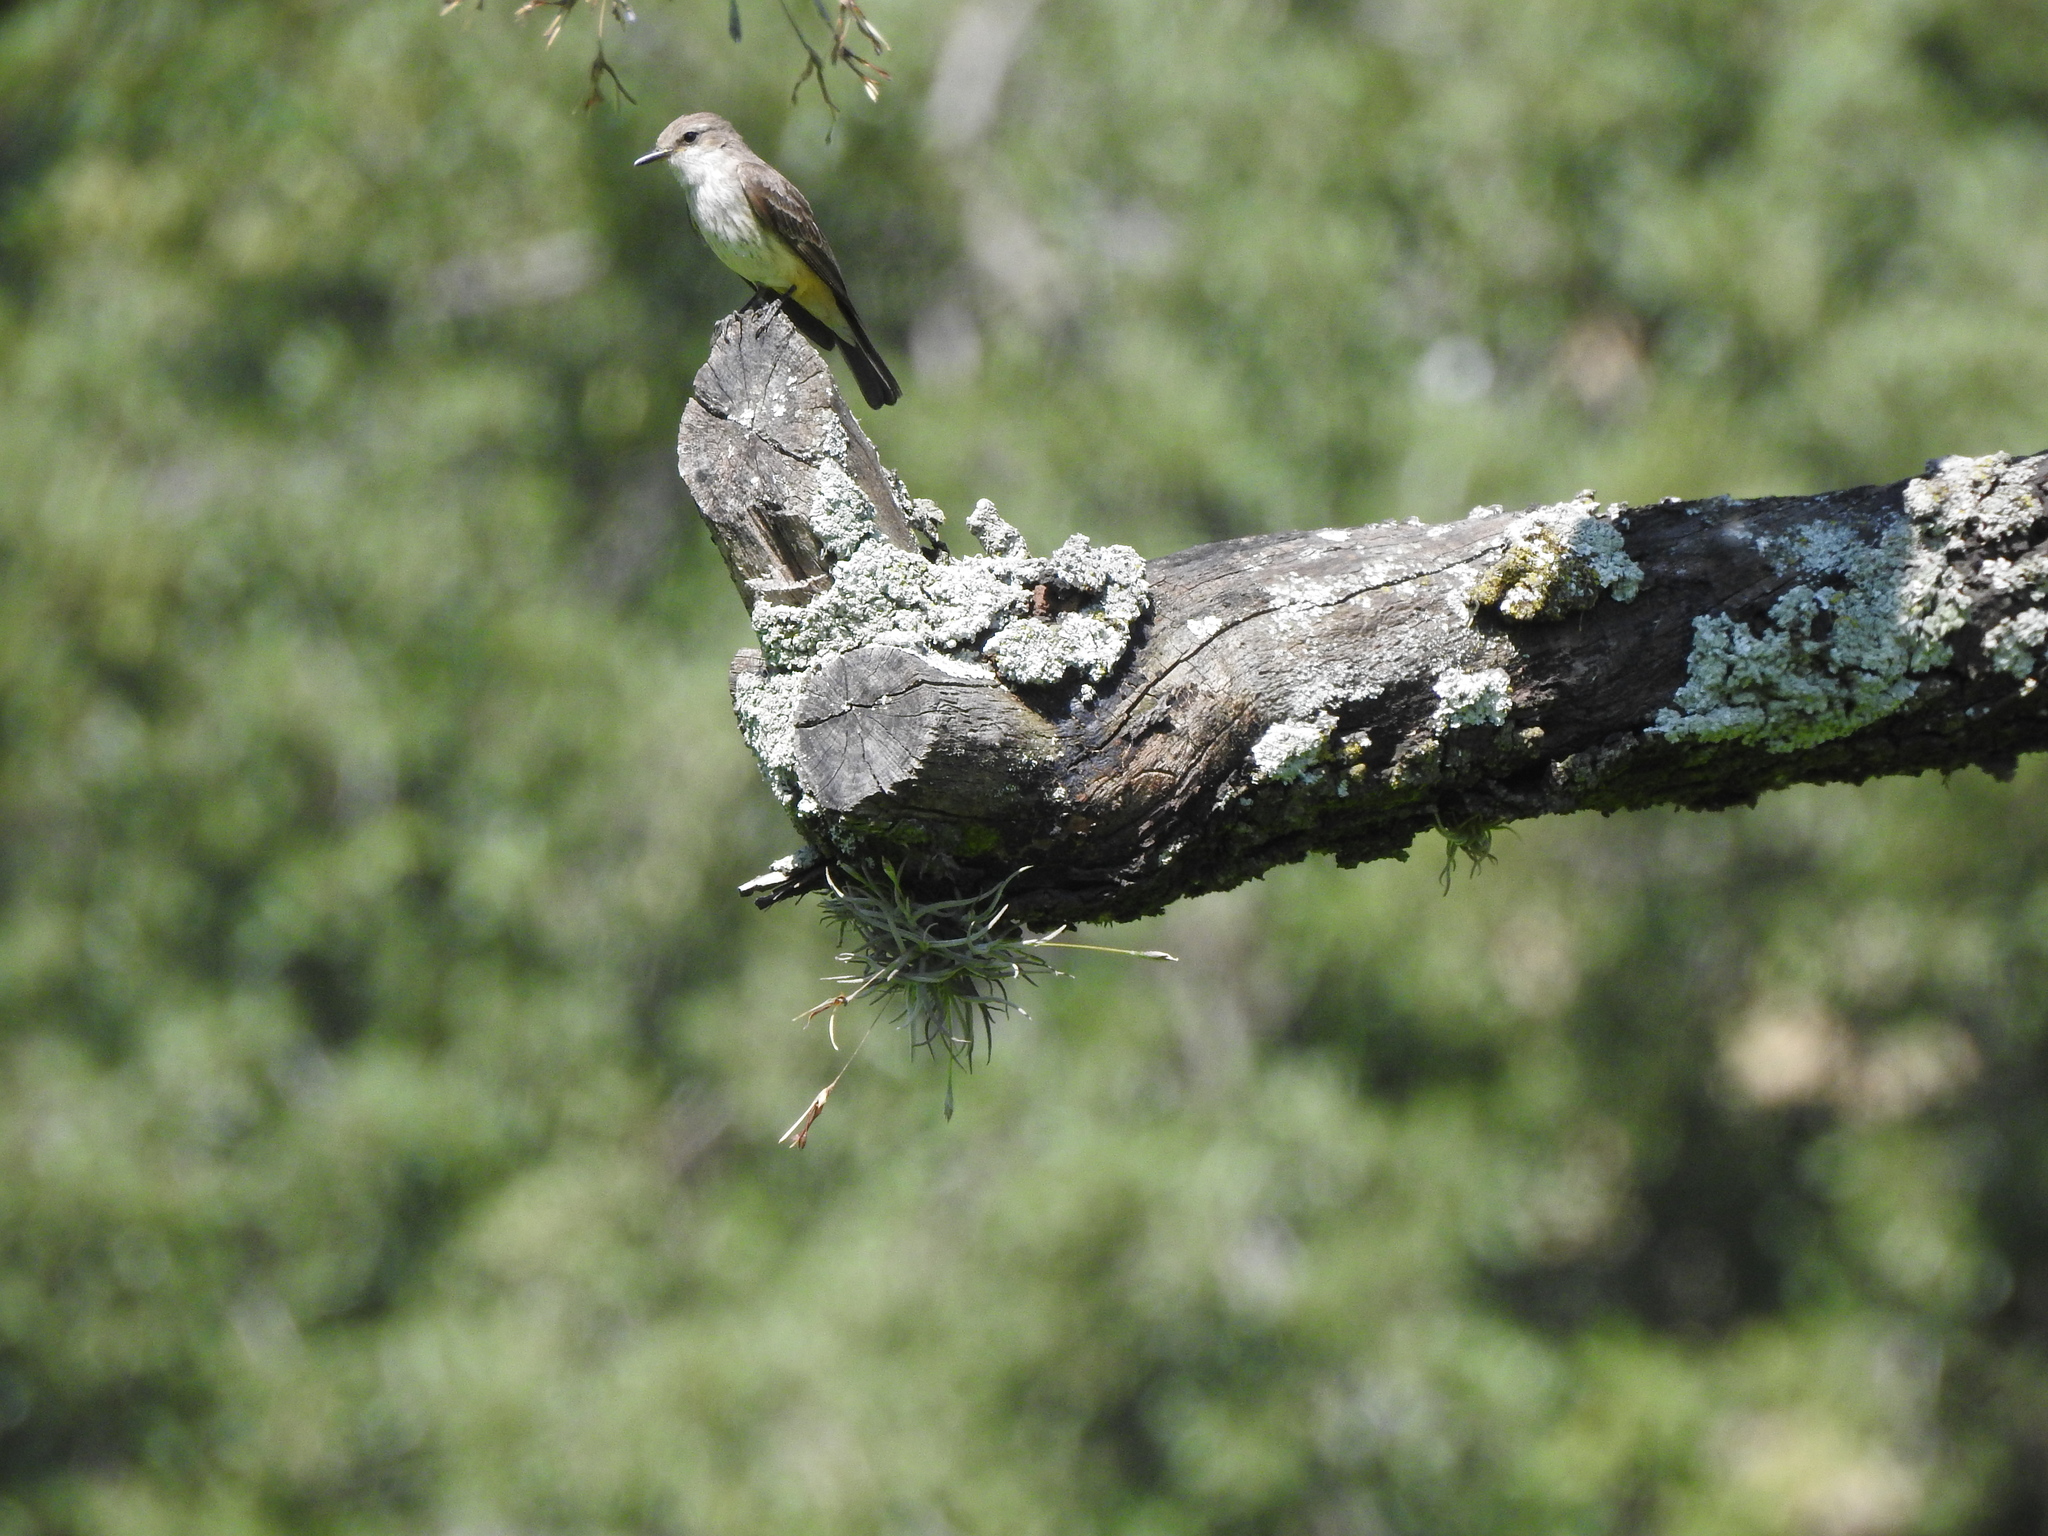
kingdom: Animalia
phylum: Chordata
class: Aves
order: Passeriformes
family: Tyrannidae
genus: Pyrocephalus
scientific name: Pyrocephalus rubinus
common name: Vermilion flycatcher
